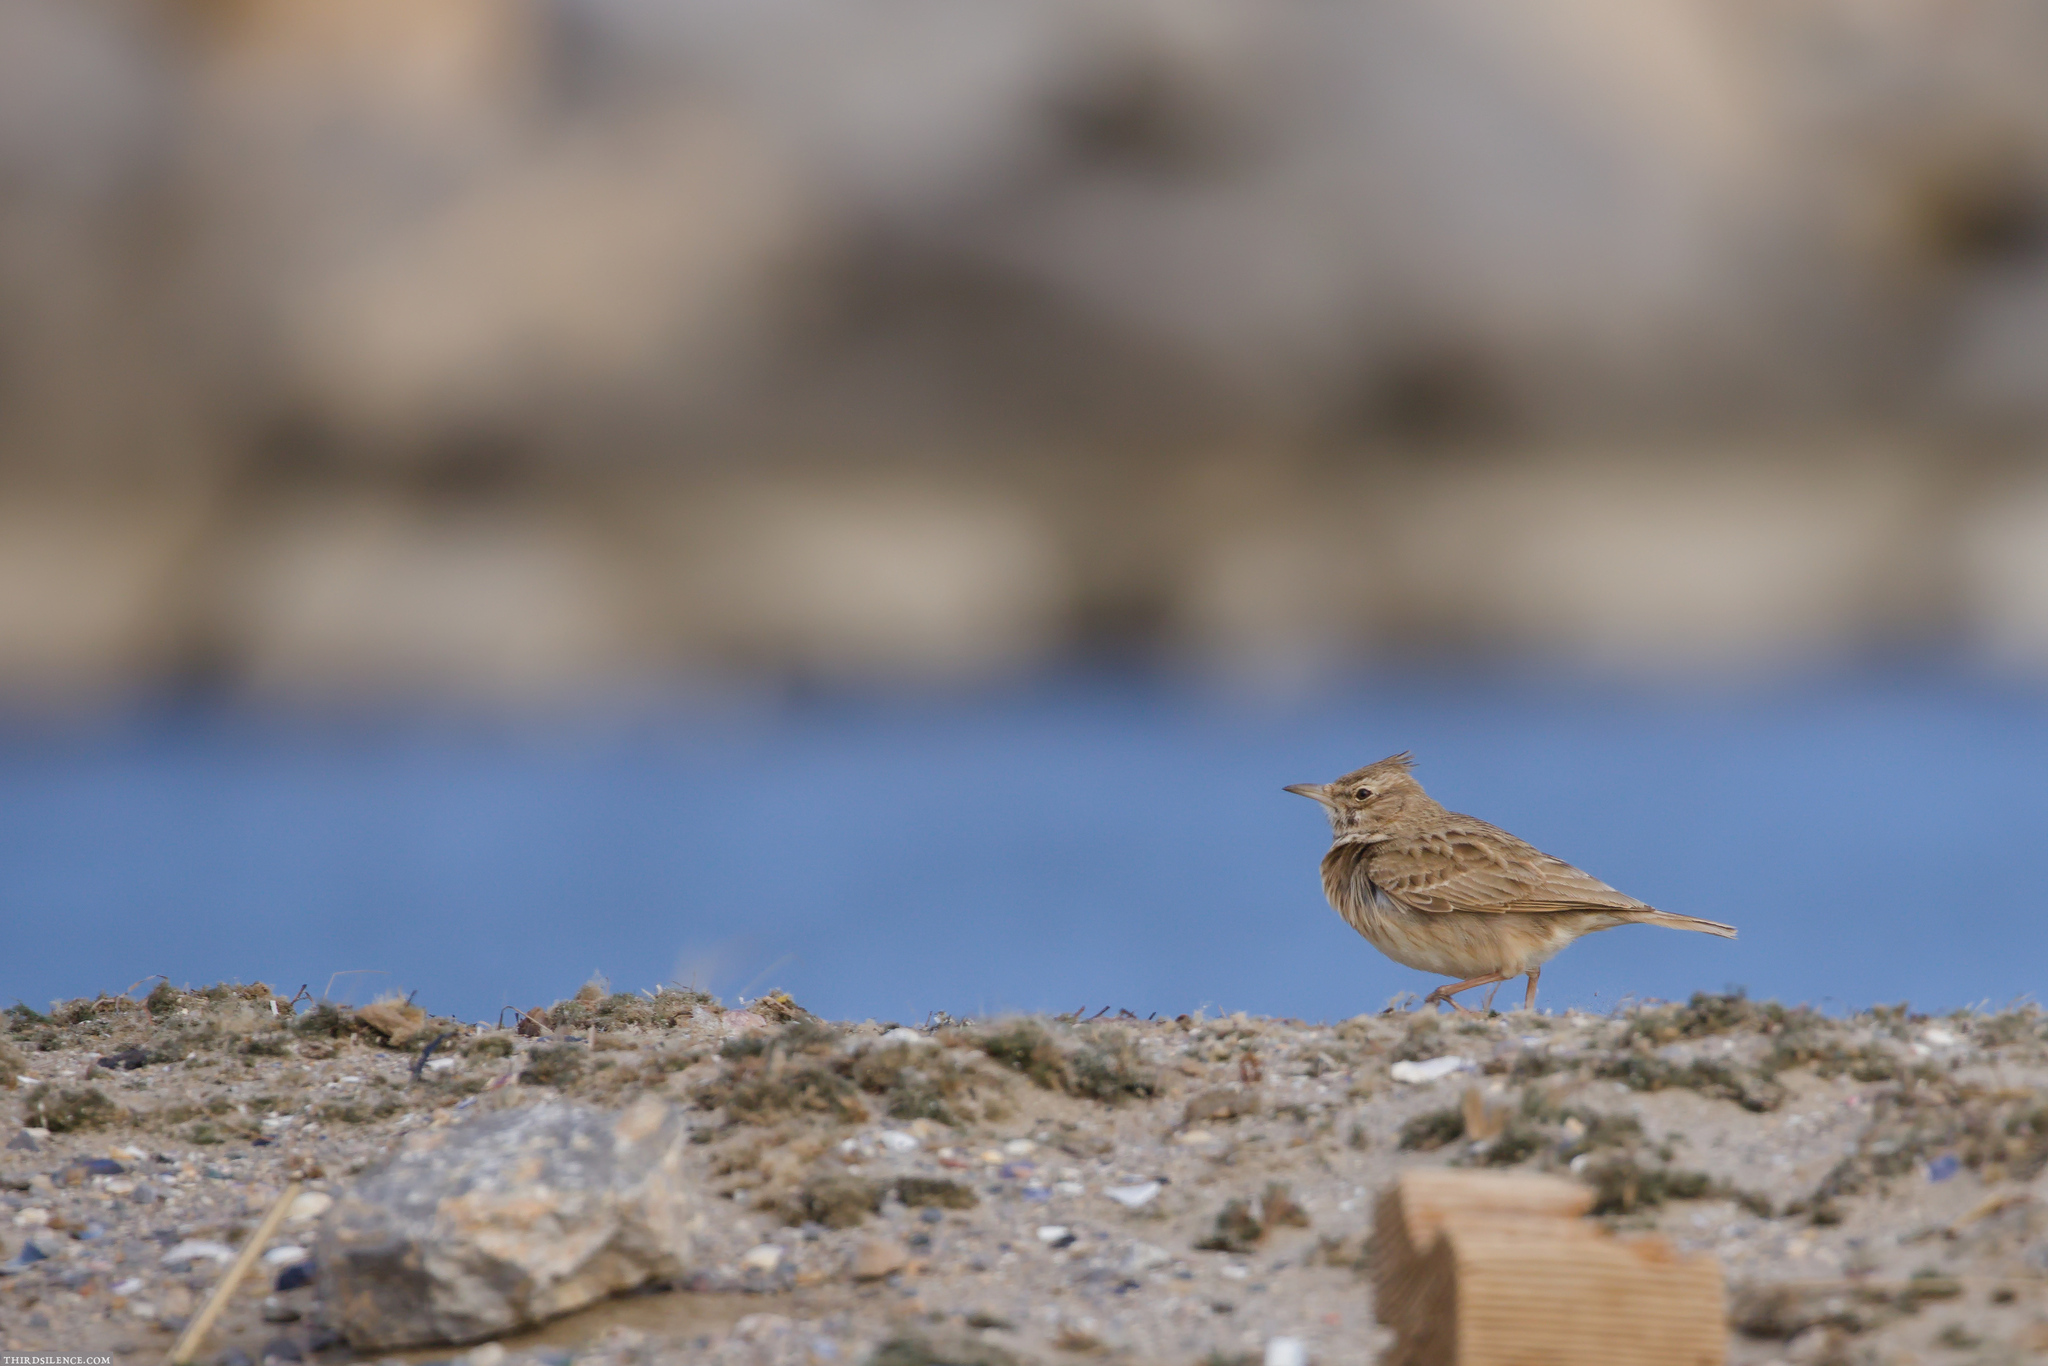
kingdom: Animalia
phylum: Chordata
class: Aves
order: Passeriformes
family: Alaudidae
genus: Galerida
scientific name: Galerida cristata
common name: Crested lark
